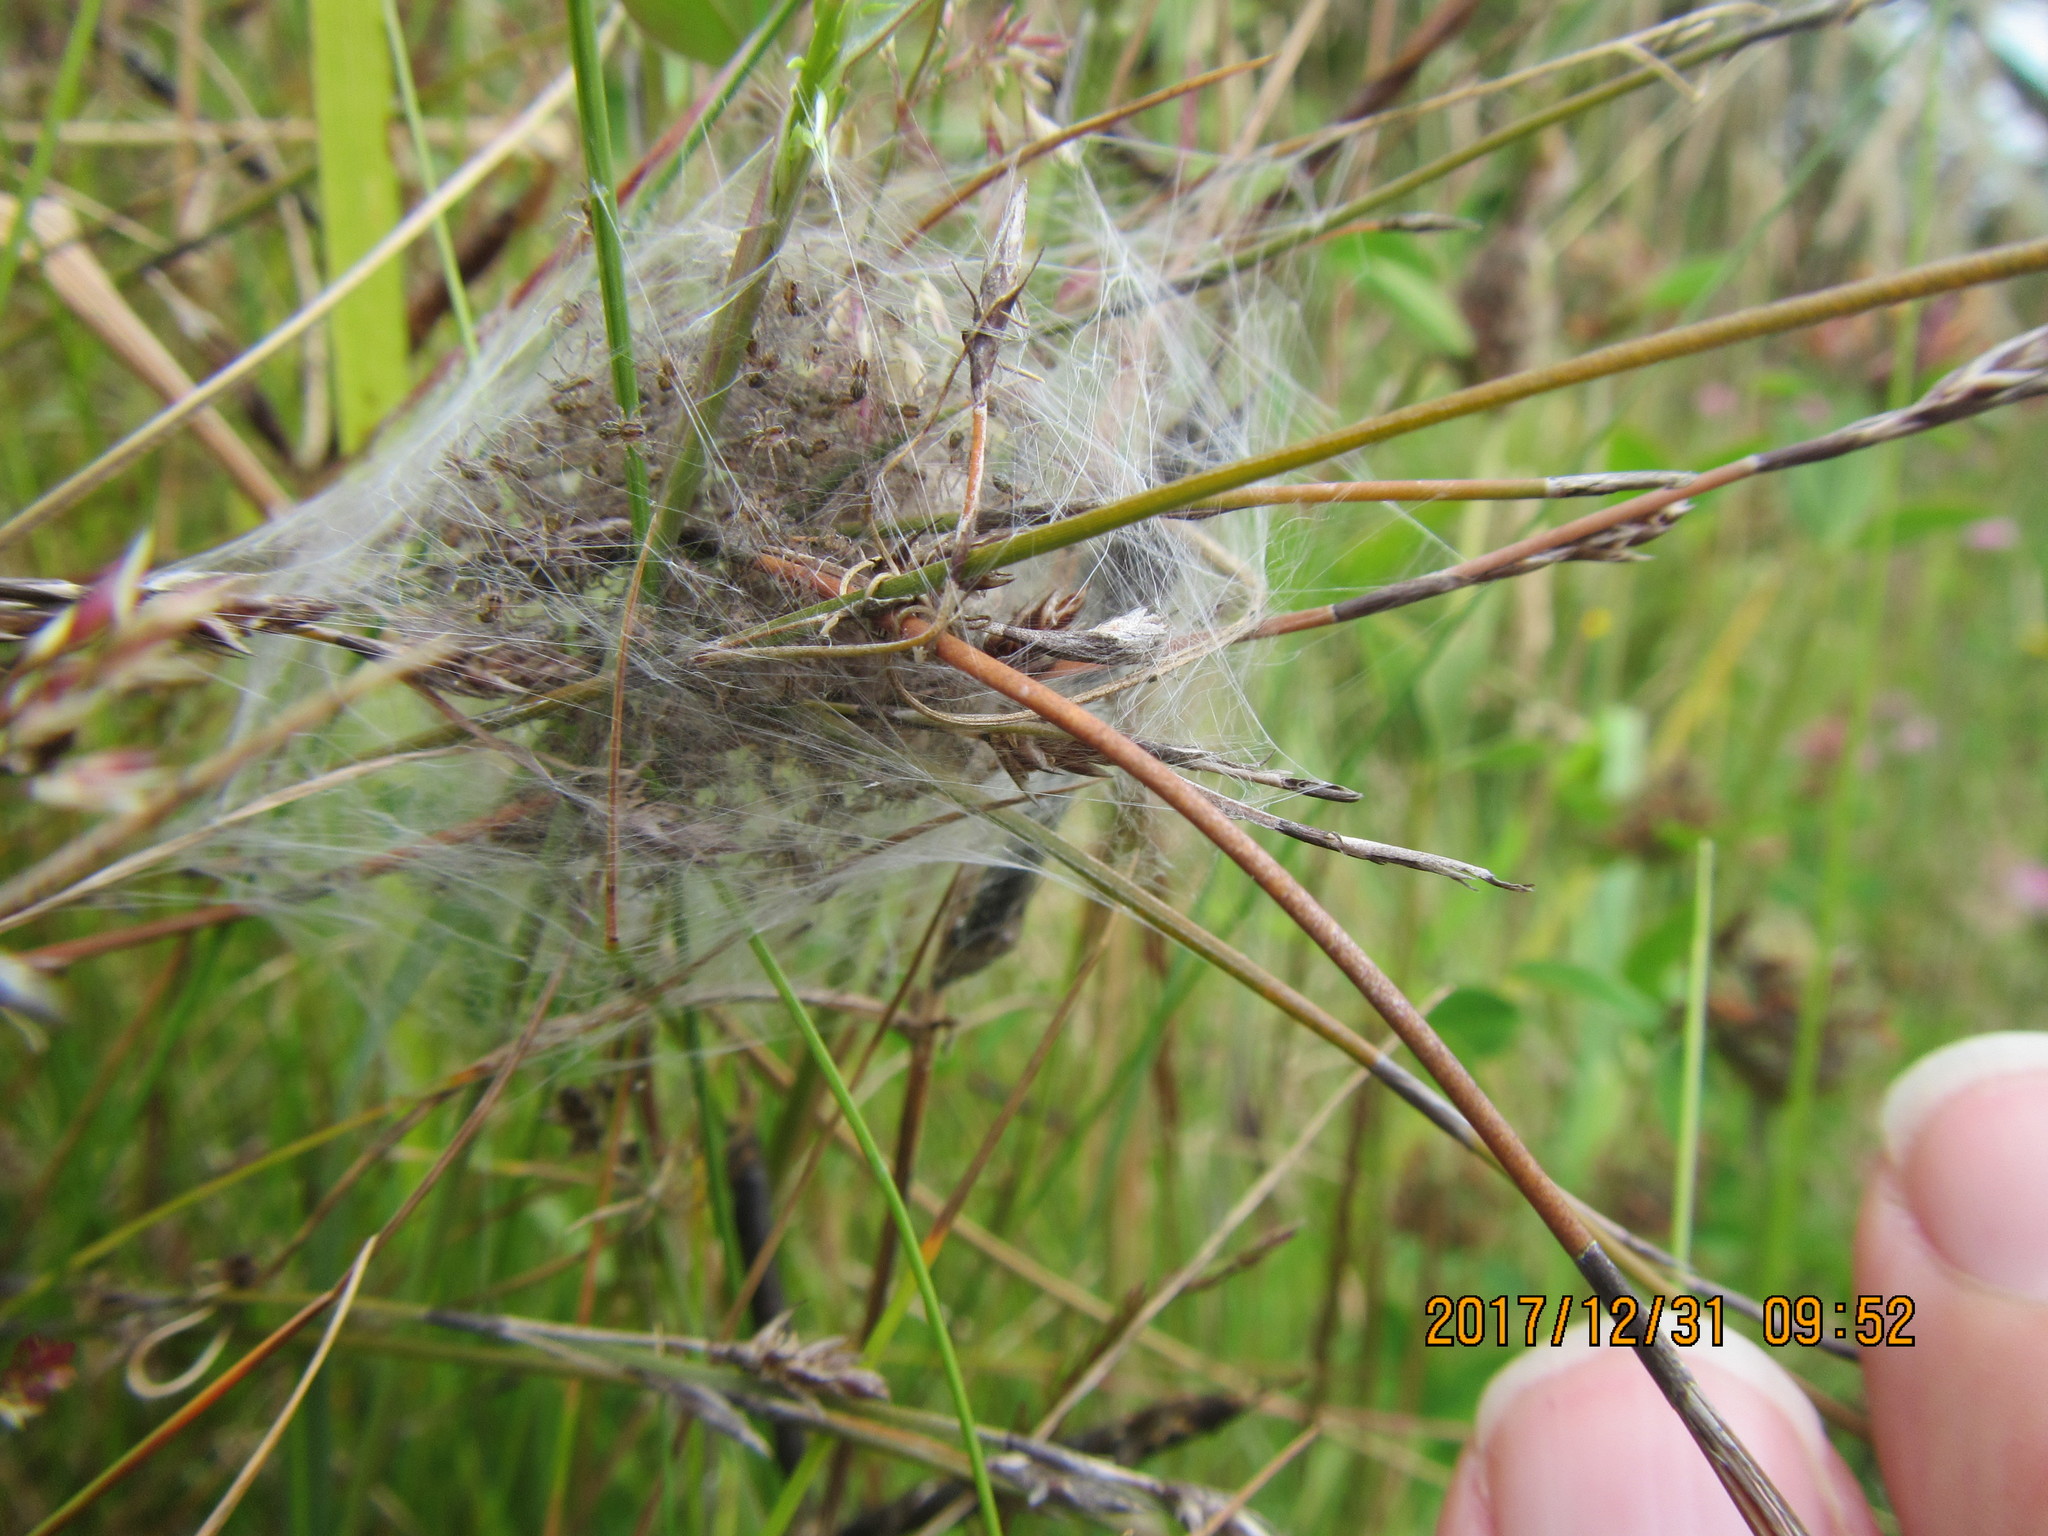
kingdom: Animalia
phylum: Arthropoda
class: Arachnida
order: Araneae
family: Pisauridae
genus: Dolomedes
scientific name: Dolomedes minor
